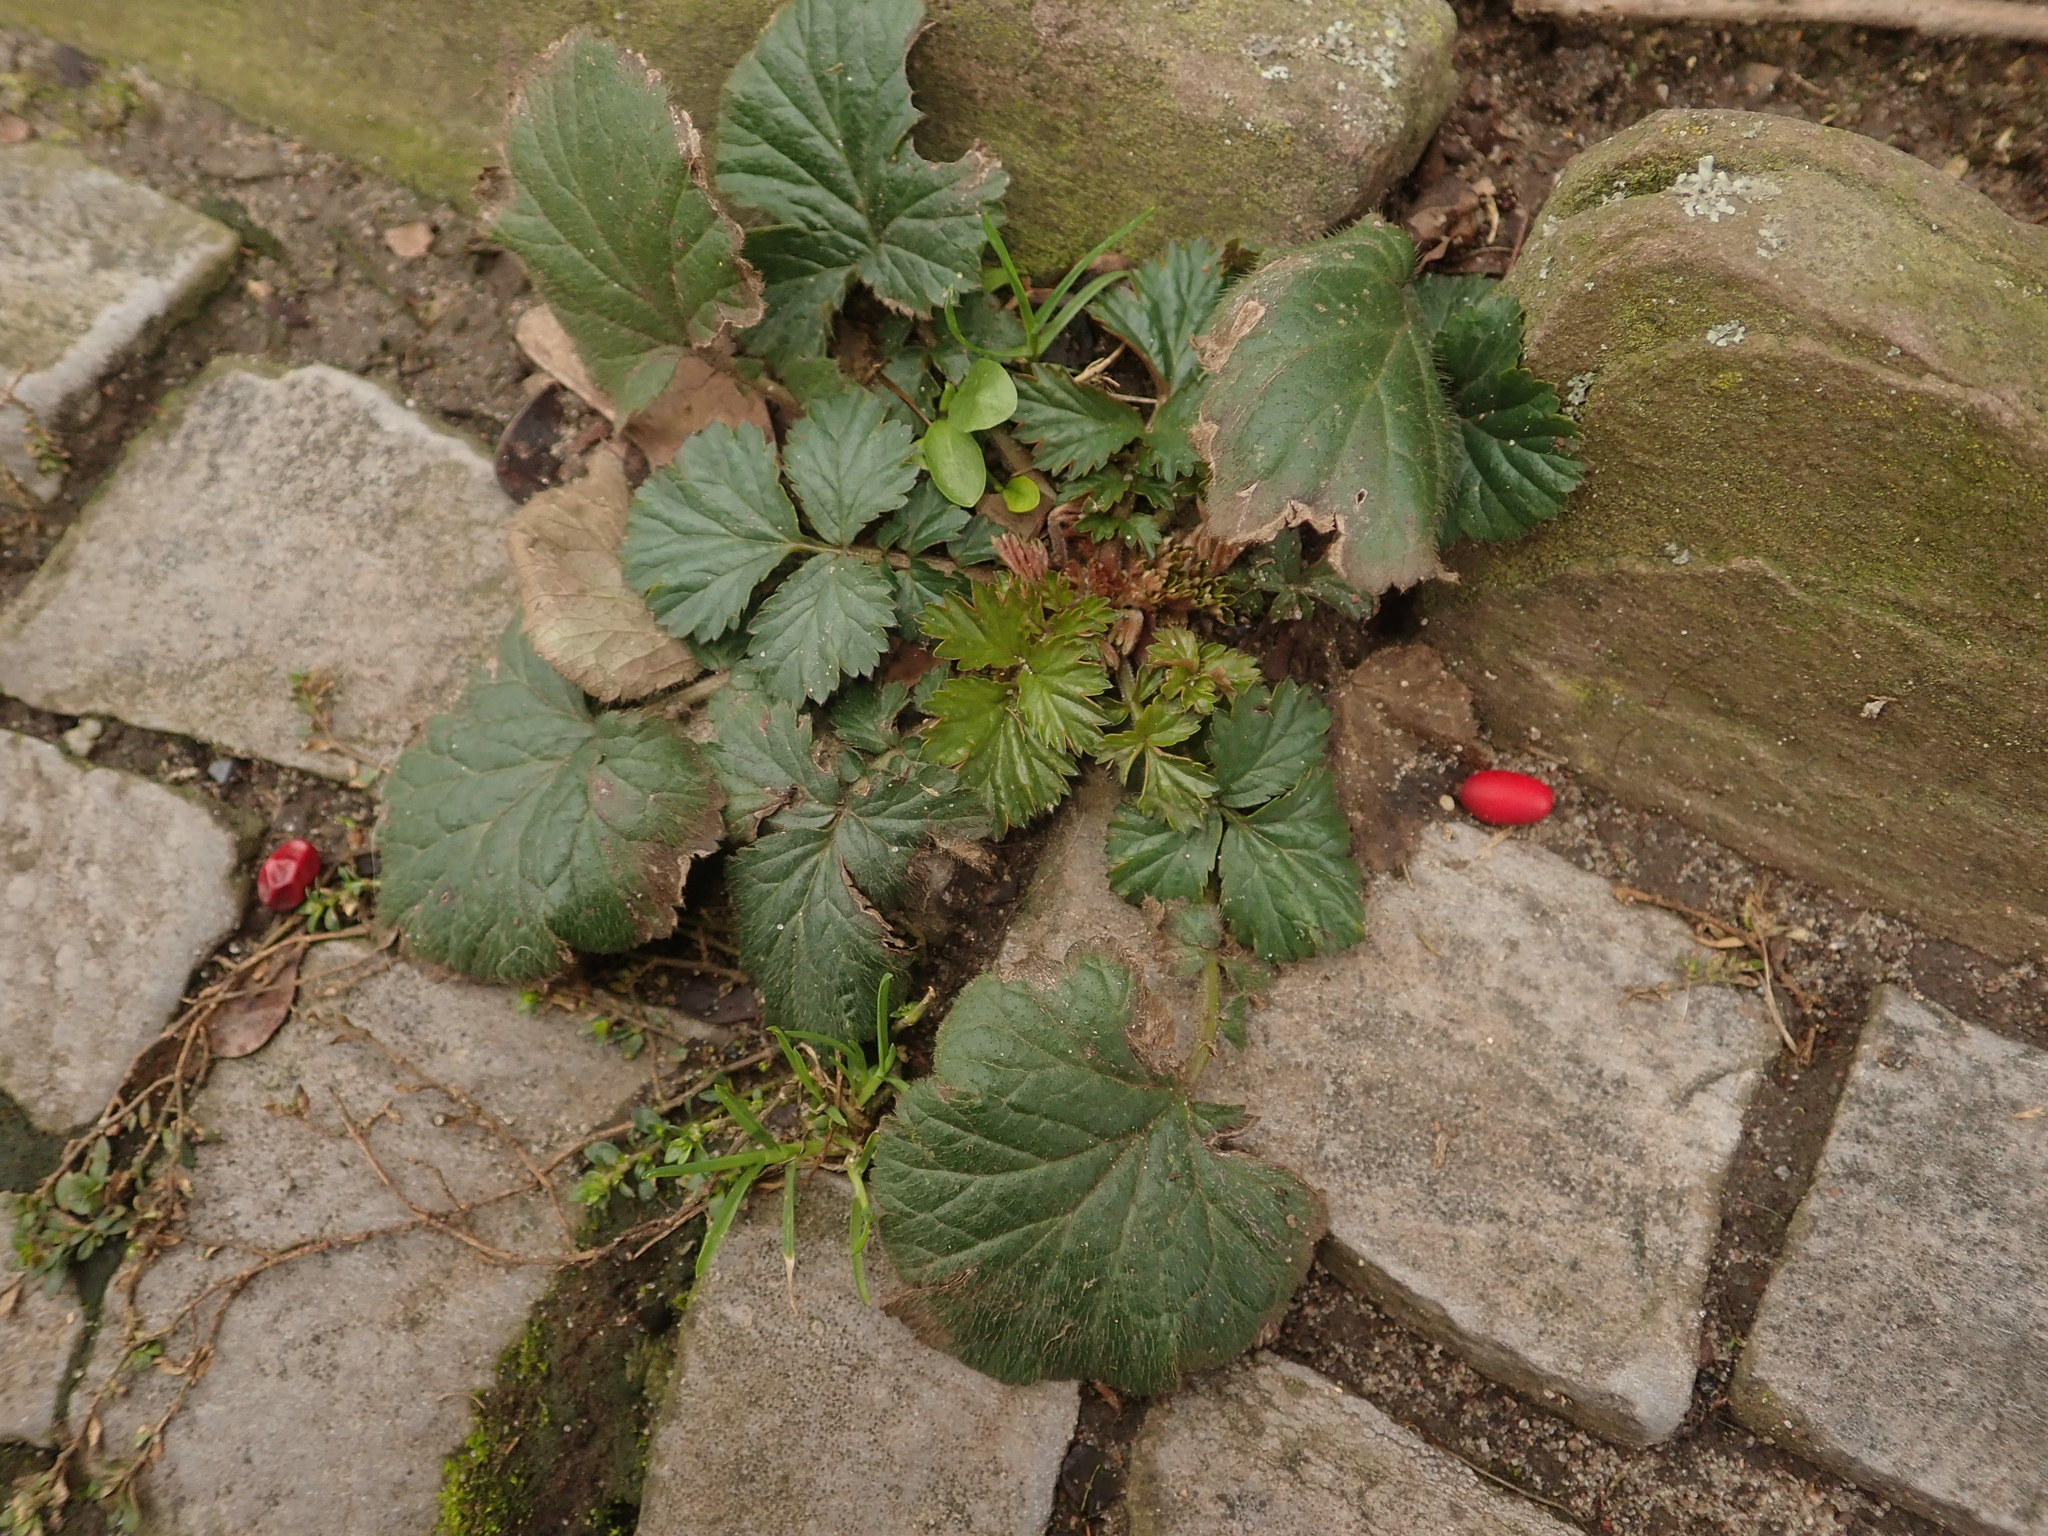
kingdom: Plantae
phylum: Tracheophyta
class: Magnoliopsida
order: Rosales
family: Rosaceae
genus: Geum
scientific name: Geum urbanum
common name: Wood avens
